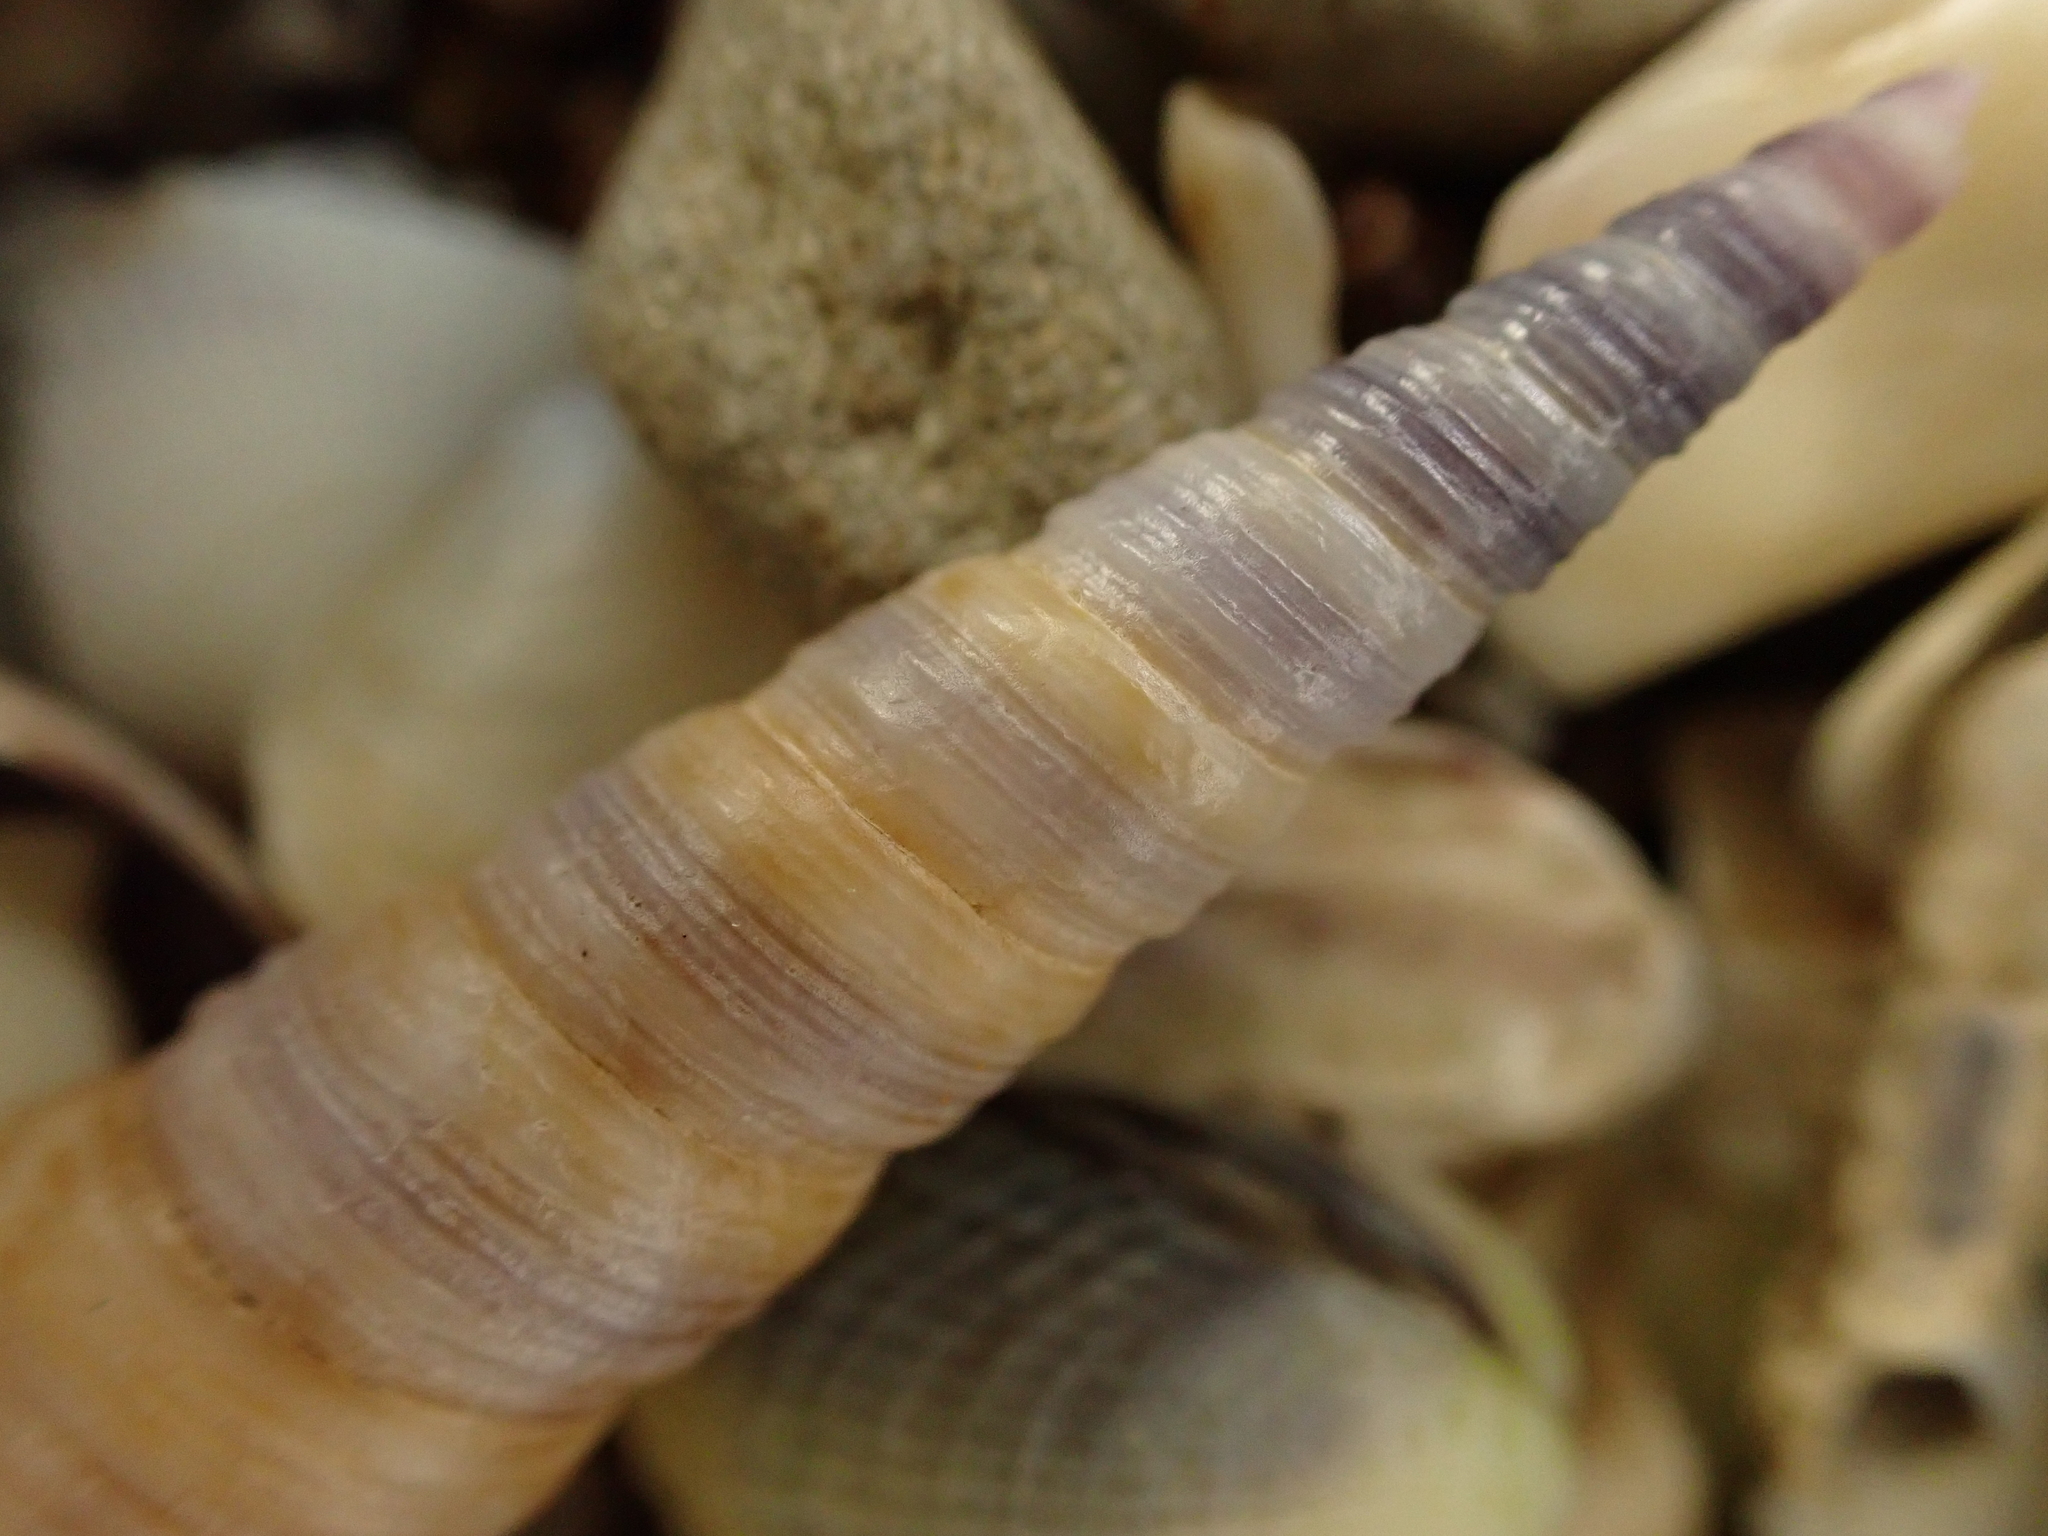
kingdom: Animalia
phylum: Mollusca
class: Gastropoda
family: Turritellidae
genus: Maoricolpus
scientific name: Maoricolpus roseus
